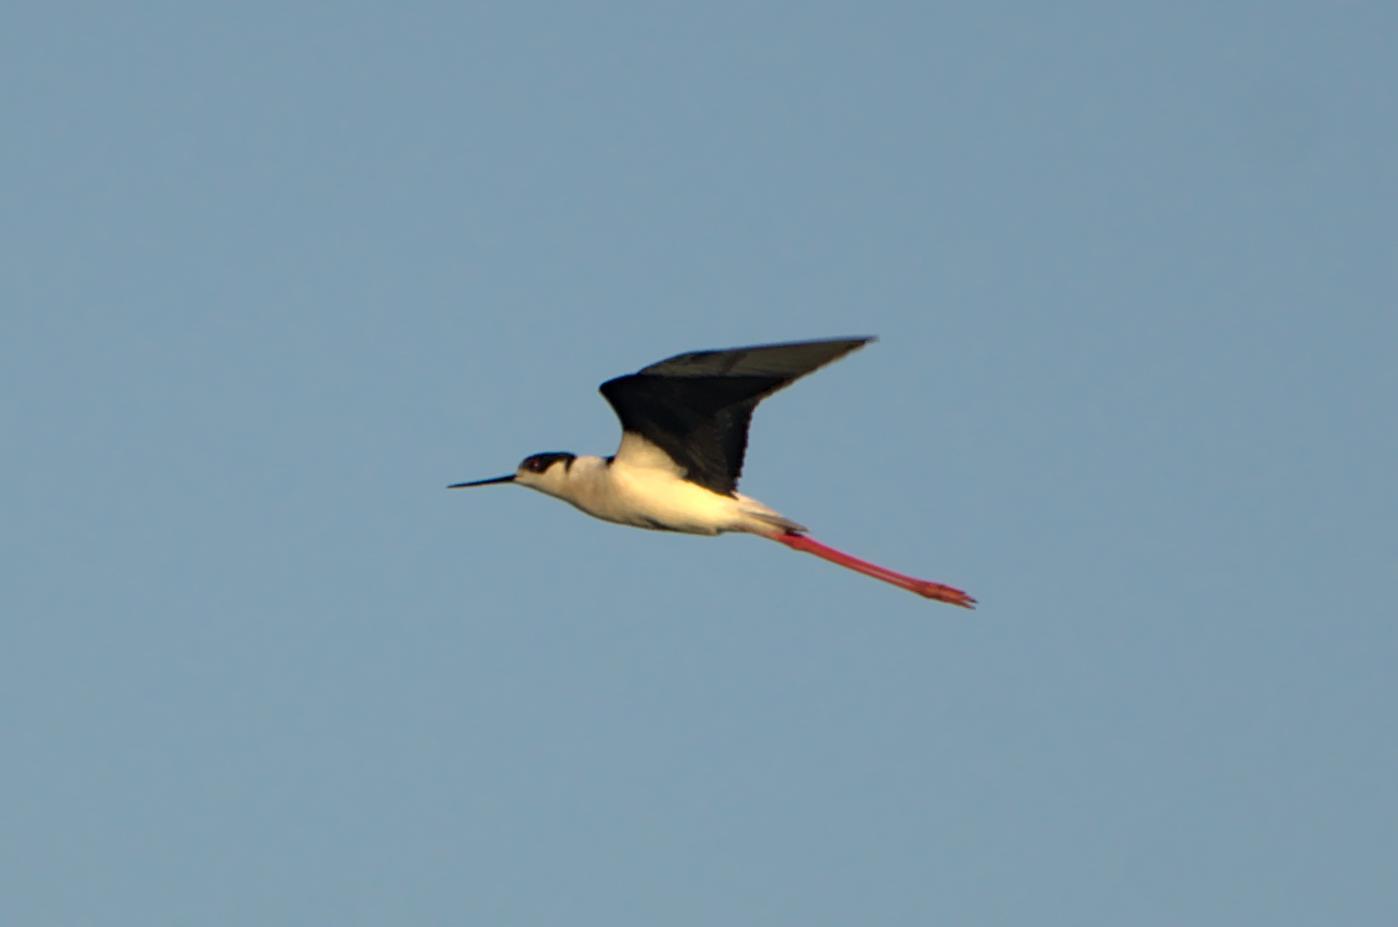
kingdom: Animalia
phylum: Chordata
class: Aves
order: Charadriiformes
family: Recurvirostridae
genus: Himantopus
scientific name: Himantopus himantopus
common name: Black-winged stilt
